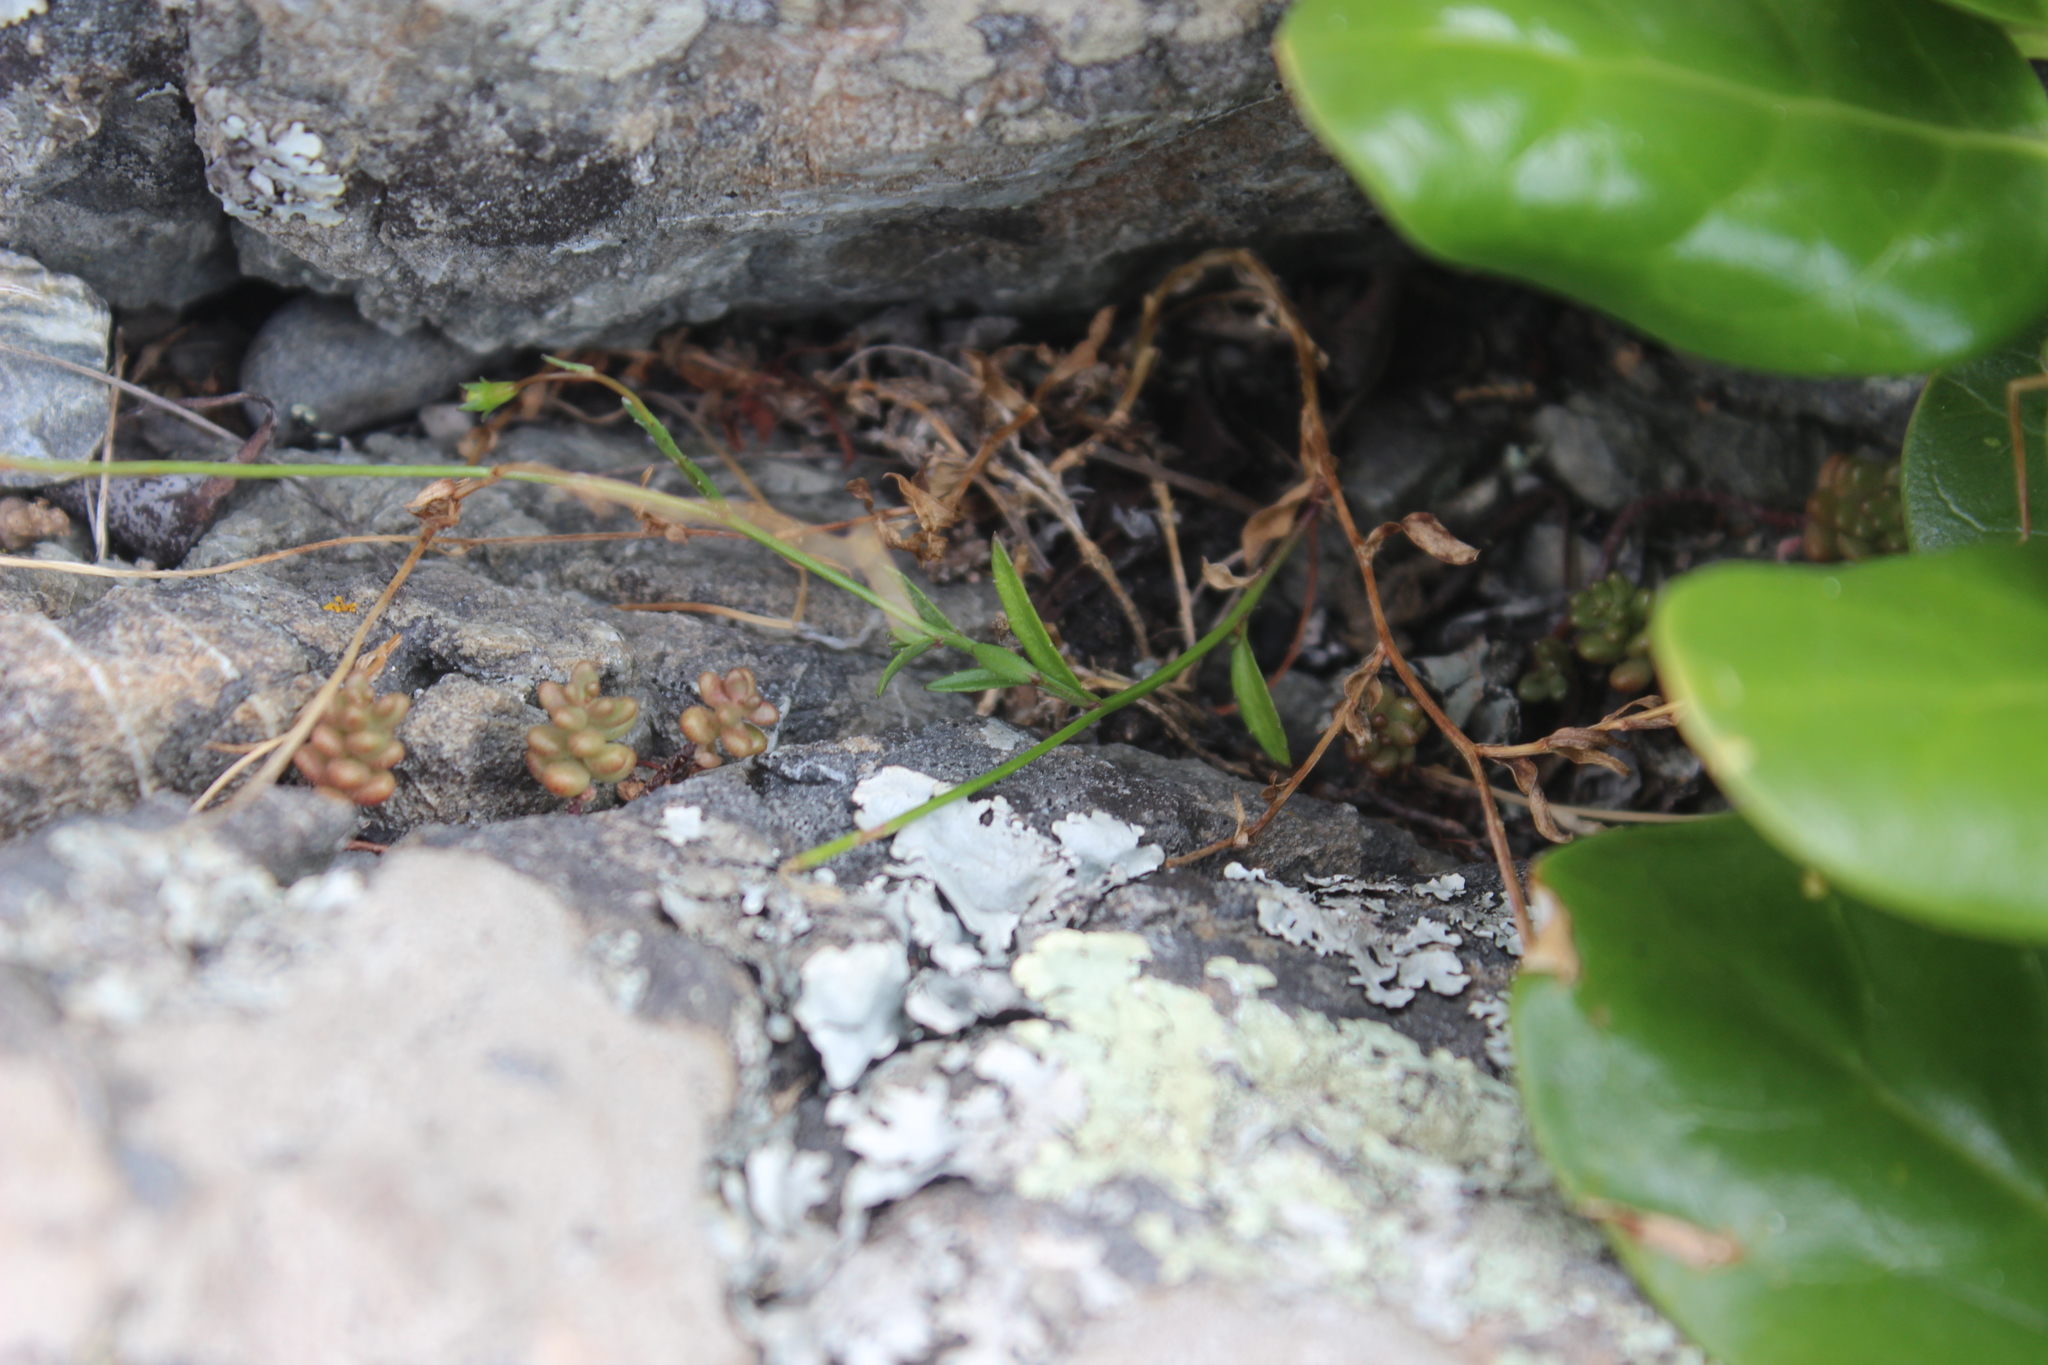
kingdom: Plantae
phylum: Tracheophyta
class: Magnoliopsida
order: Asterales
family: Campanulaceae
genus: Wahlenbergia
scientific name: Wahlenbergia ramosa
